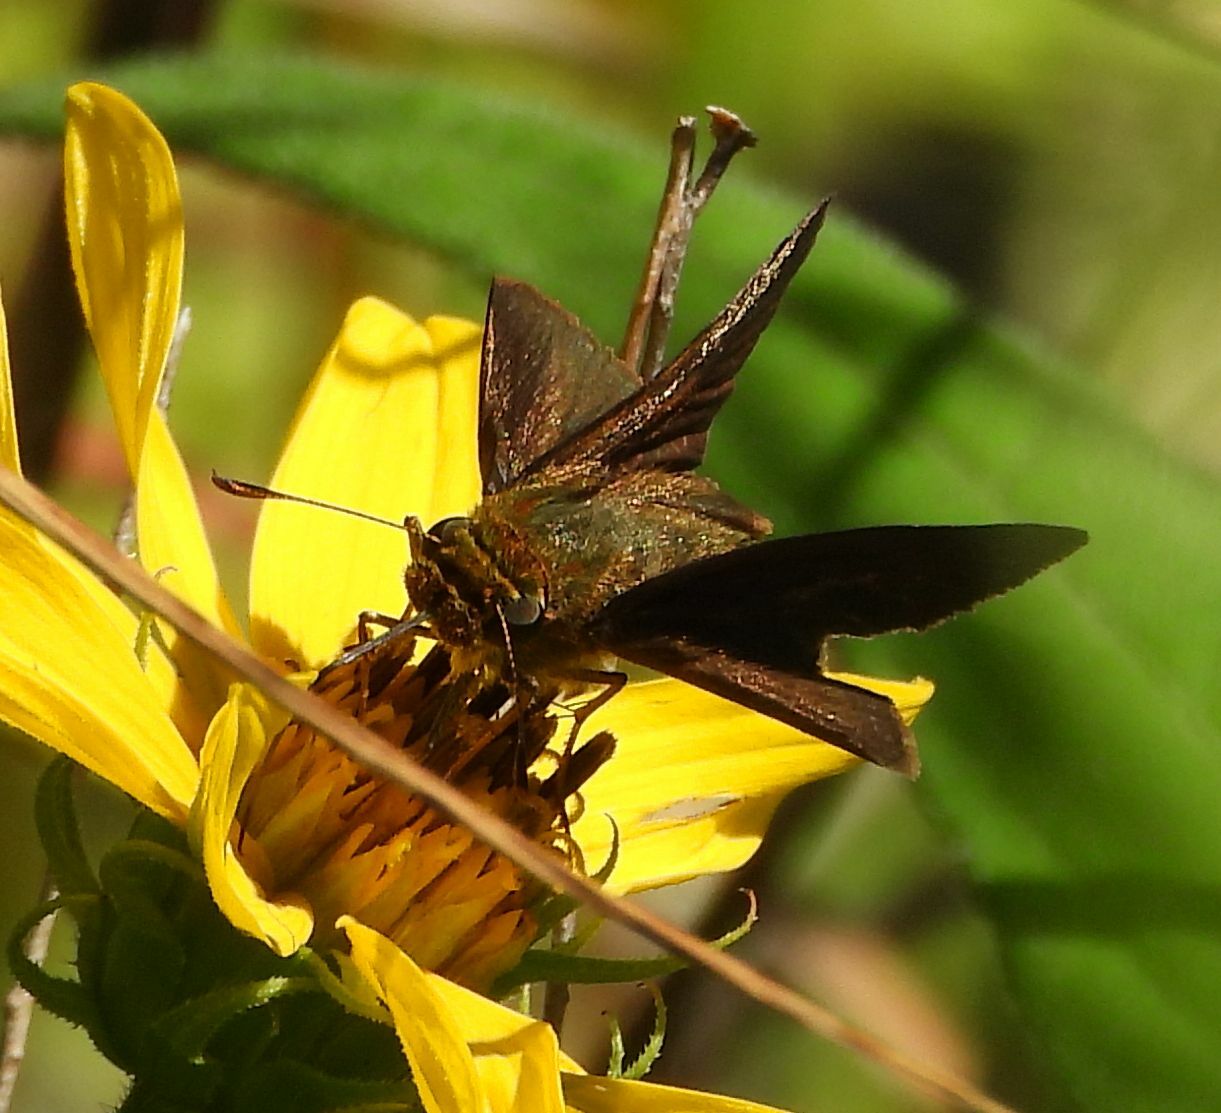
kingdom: Animalia
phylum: Arthropoda
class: Insecta
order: Lepidoptera
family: Hesperiidae
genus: Euphyes
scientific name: Euphyes vestris
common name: Dun skipper
